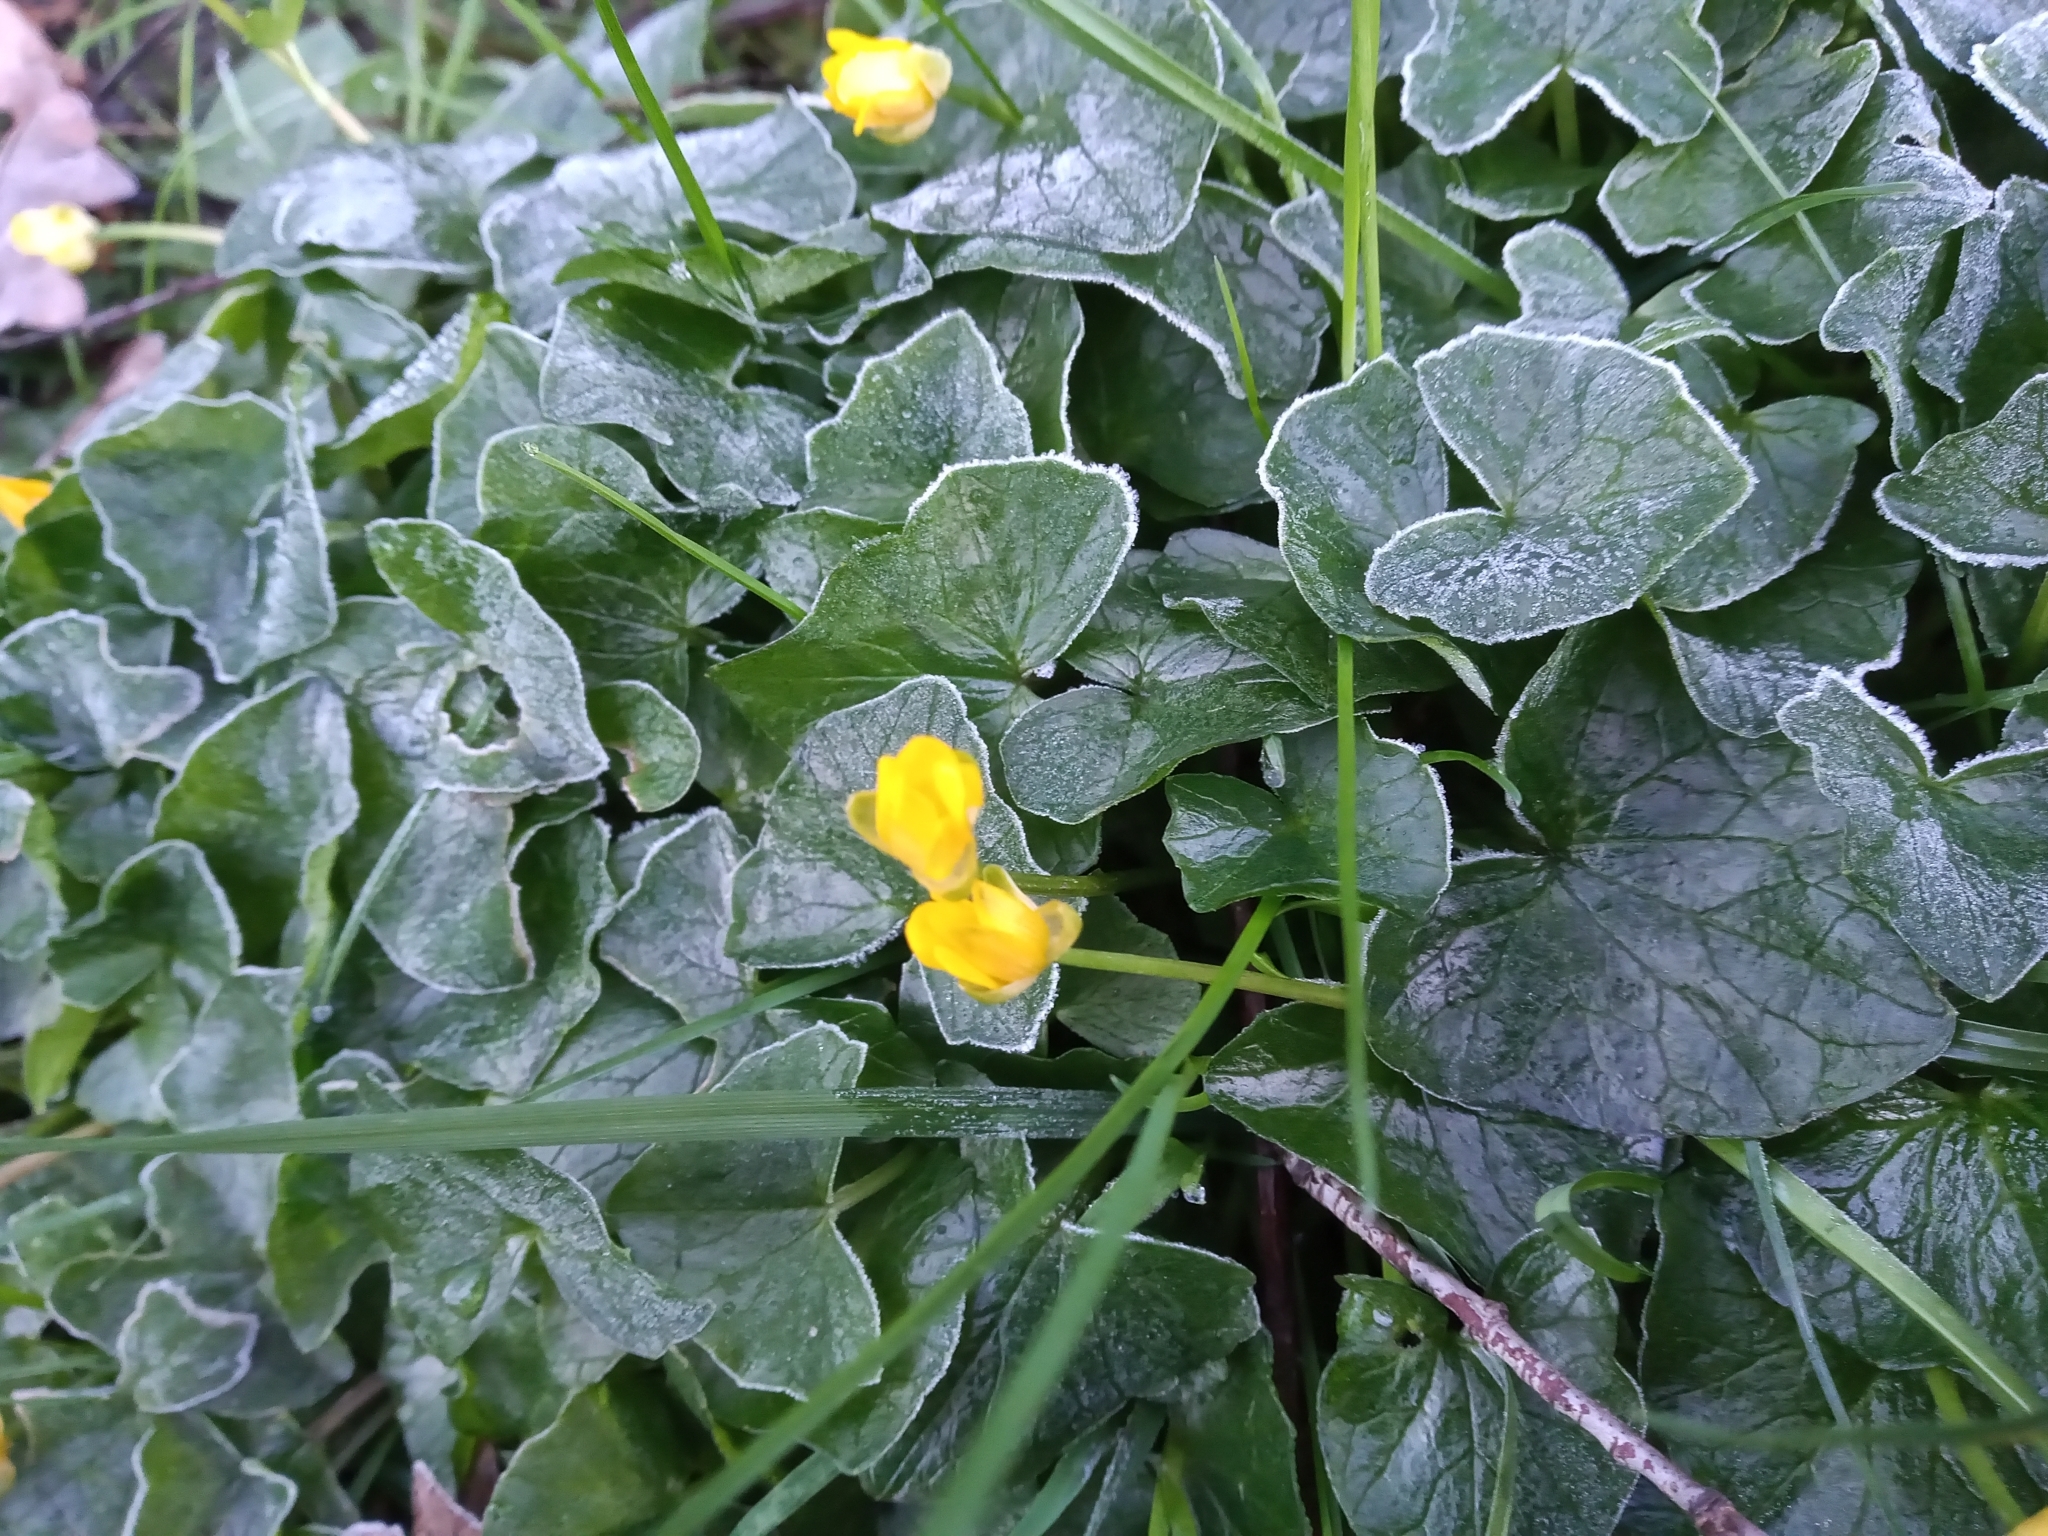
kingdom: Plantae
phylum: Tracheophyta
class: Magnoliopsida
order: Ranunculales
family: Ranunculaceae
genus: Ficaria
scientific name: Ficaria verna
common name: Lesser celandine
